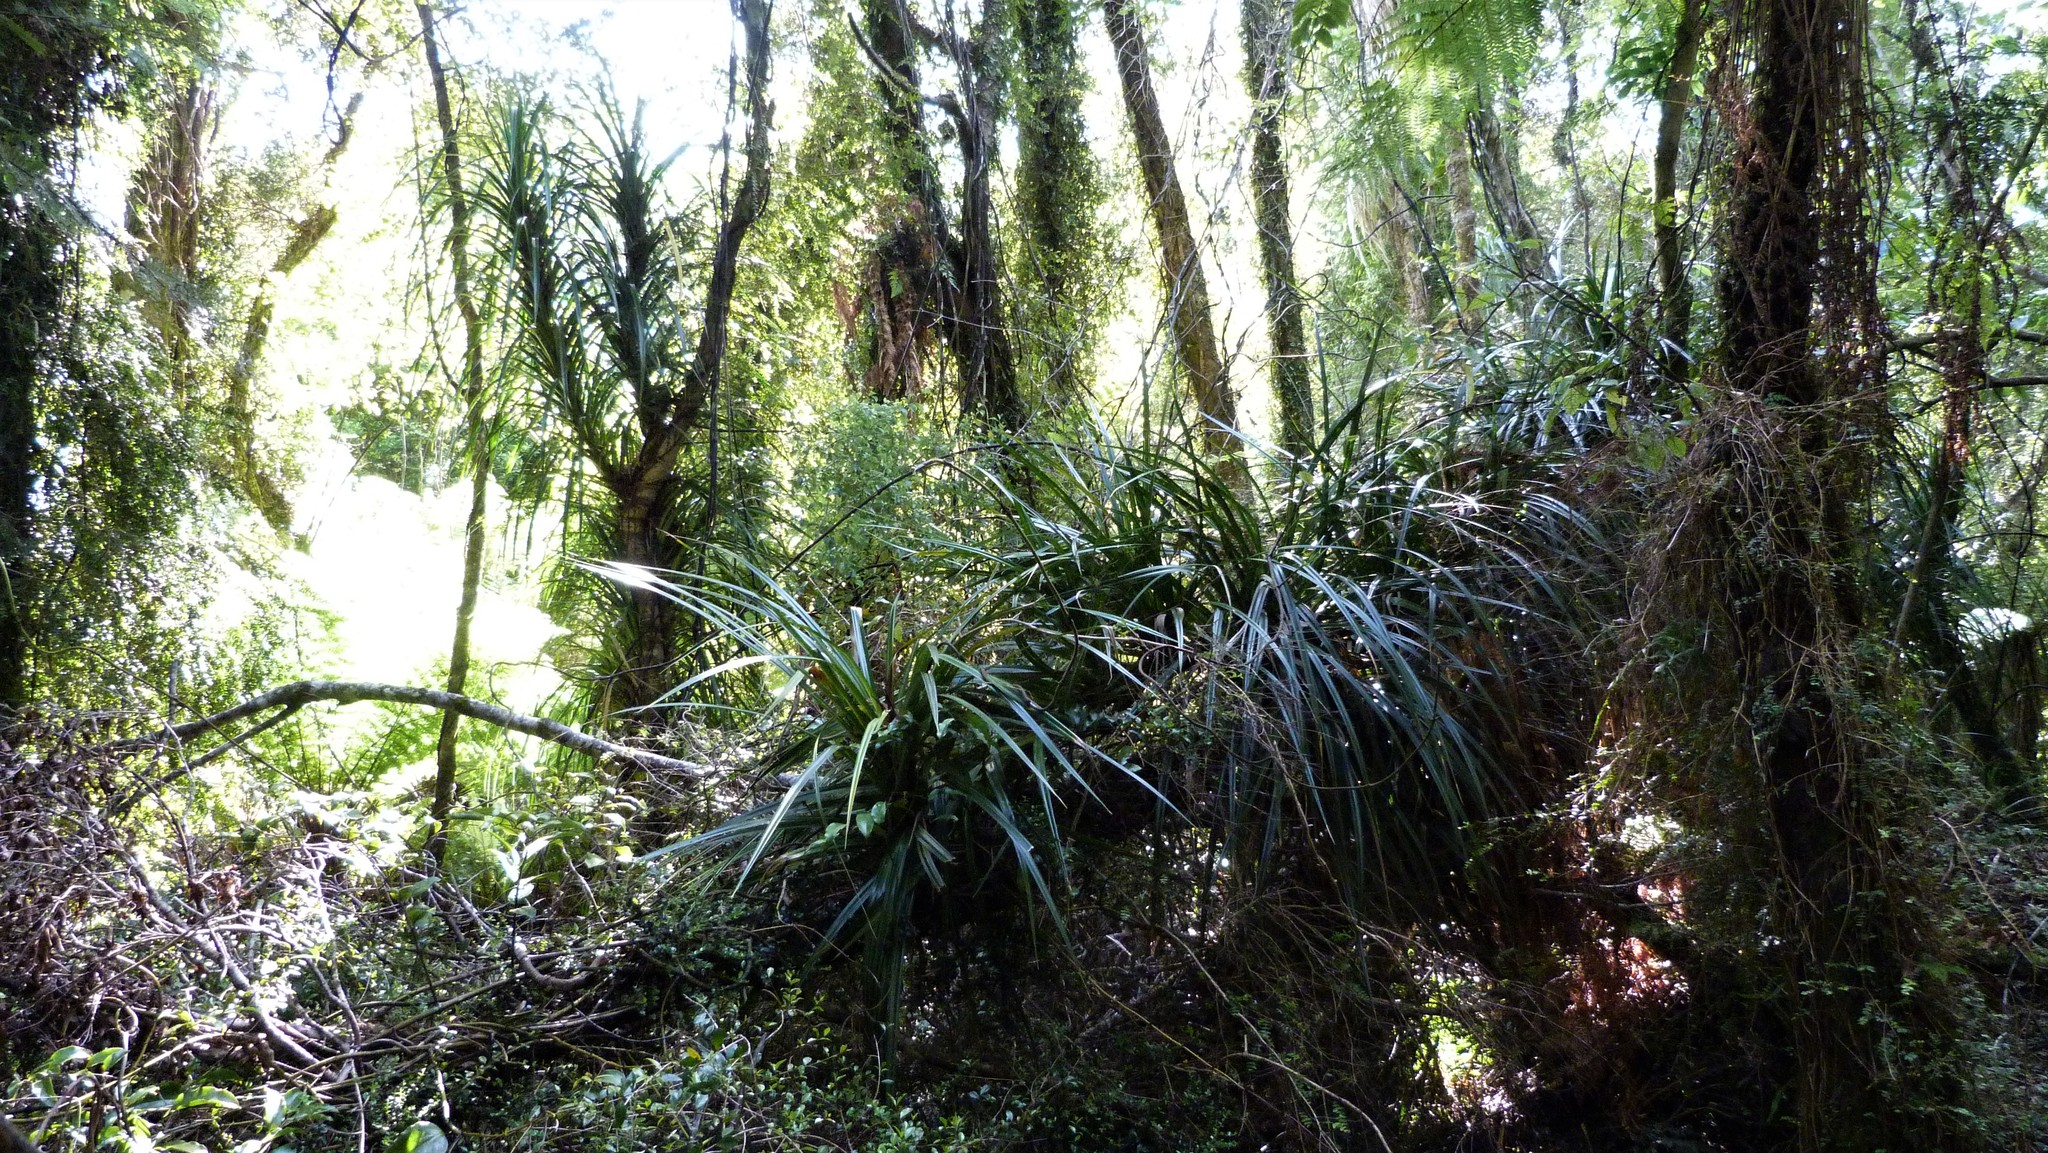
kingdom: Plantae
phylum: Tracheophyta
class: Liliopsida
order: Pandanales
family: Pandanaceae
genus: Freycinetia
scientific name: Freycinetia banksii
